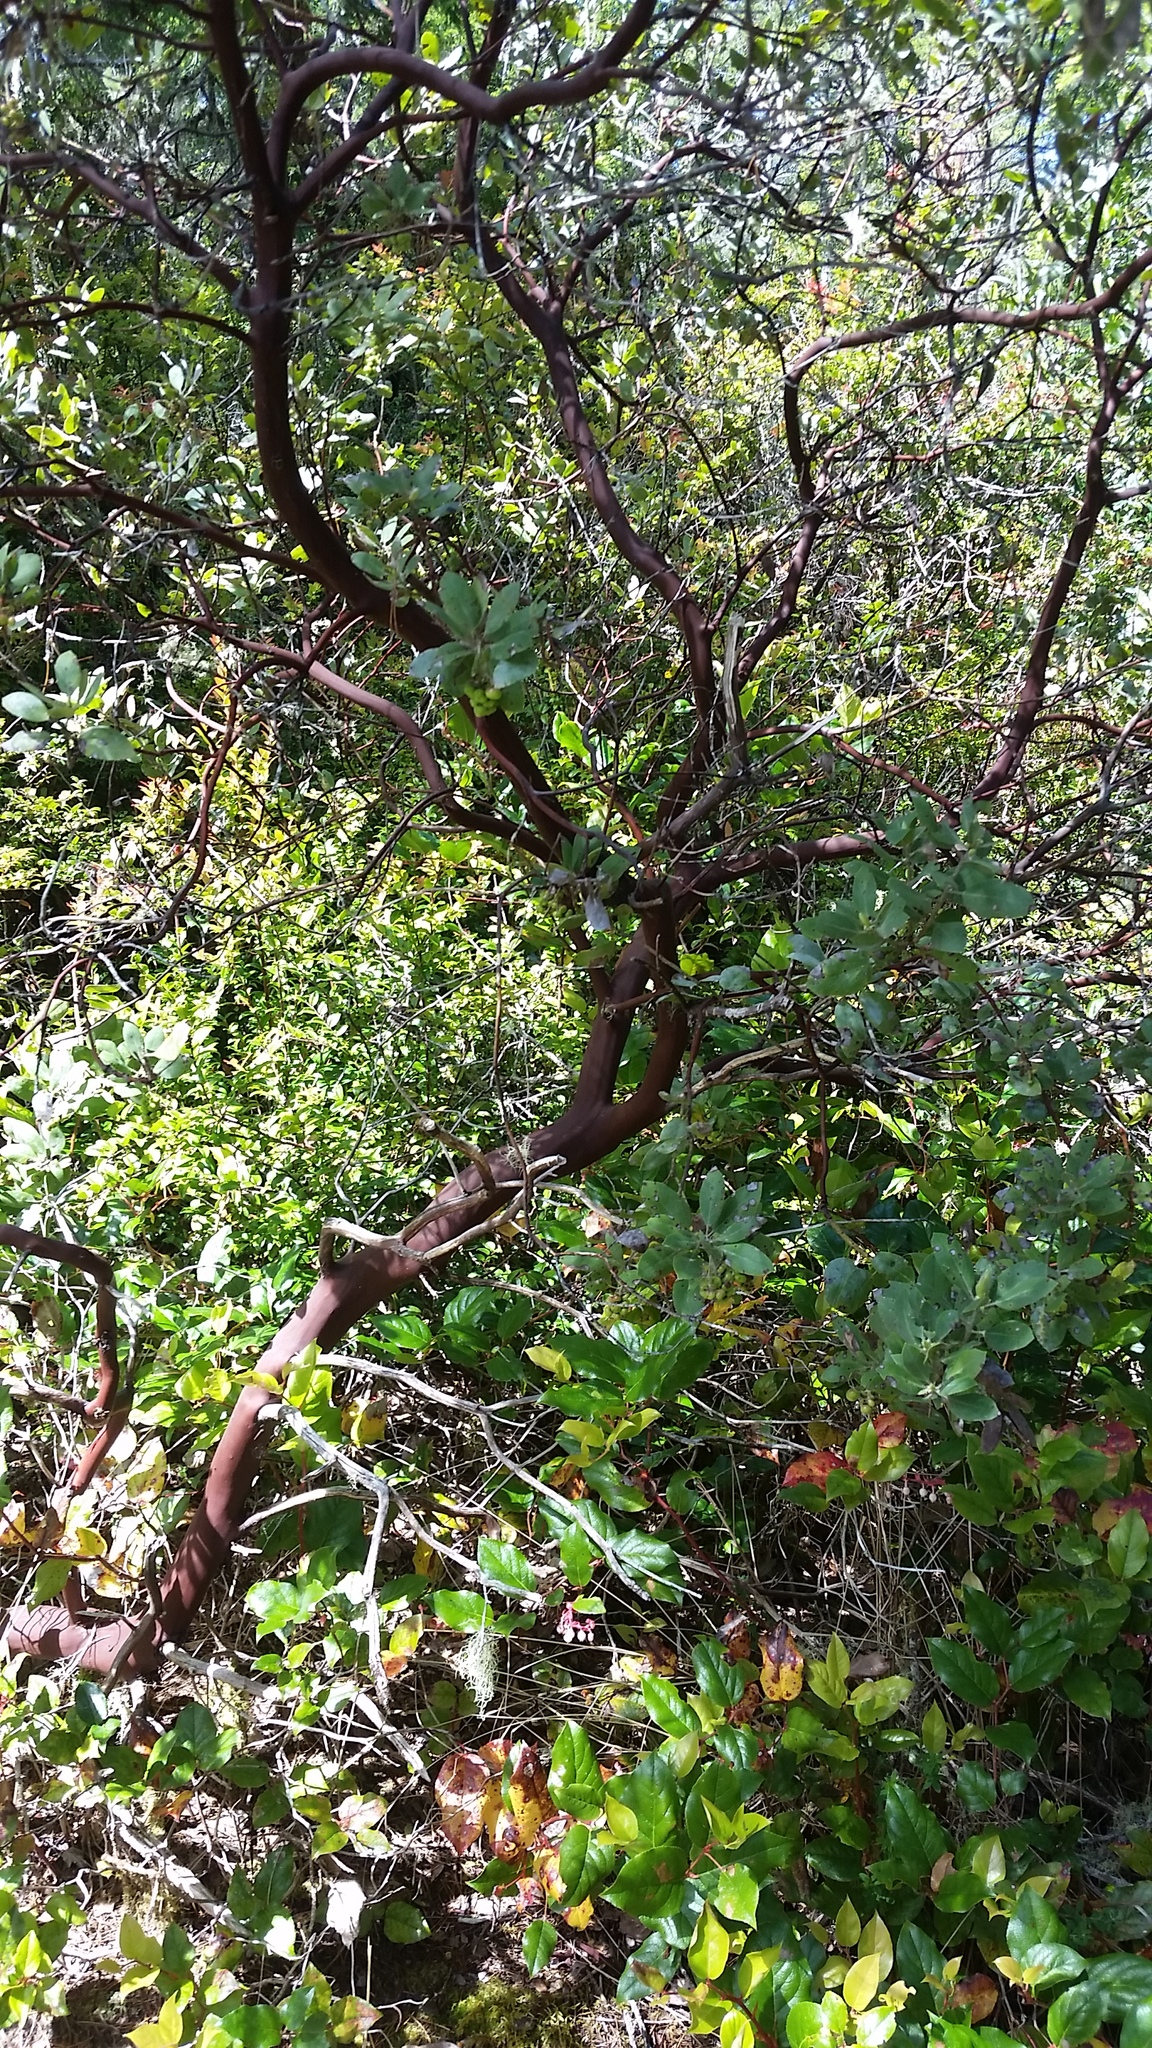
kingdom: Plantae
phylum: Tracheophyta
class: Magnoliopsida
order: Ericales
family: Ericaceae
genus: Arctostaphylos
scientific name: Arctostaphylos columbiana
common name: Bristly bearberry
